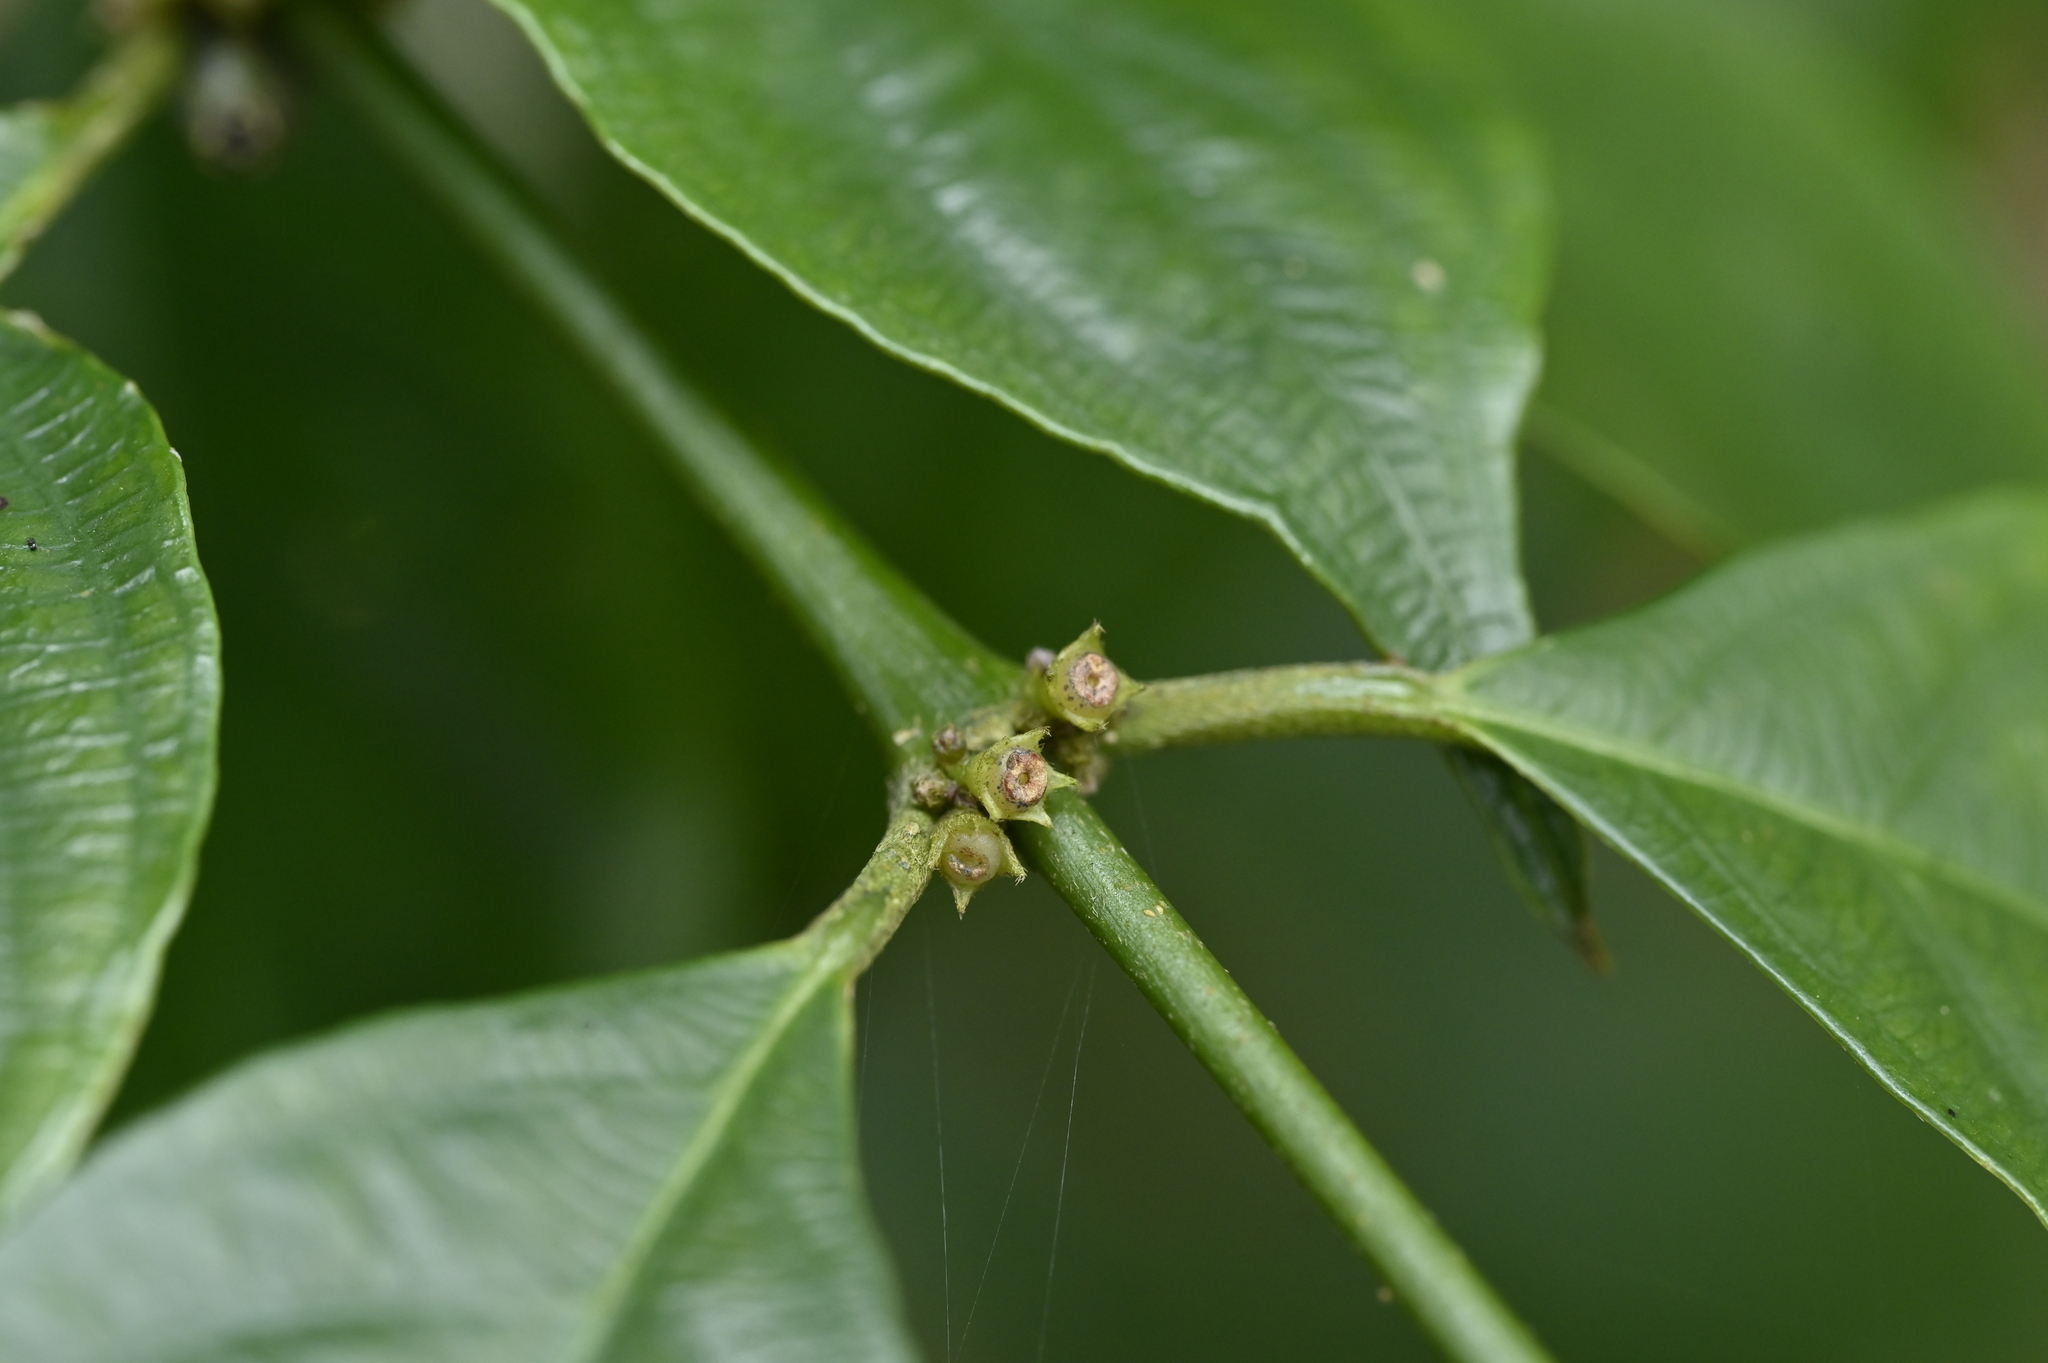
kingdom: Plantae
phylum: Tracheophyta
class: Magnoliopsida
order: Gentianales
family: Rubiaceae
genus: Lasianthus
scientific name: Lasianthus fordii
